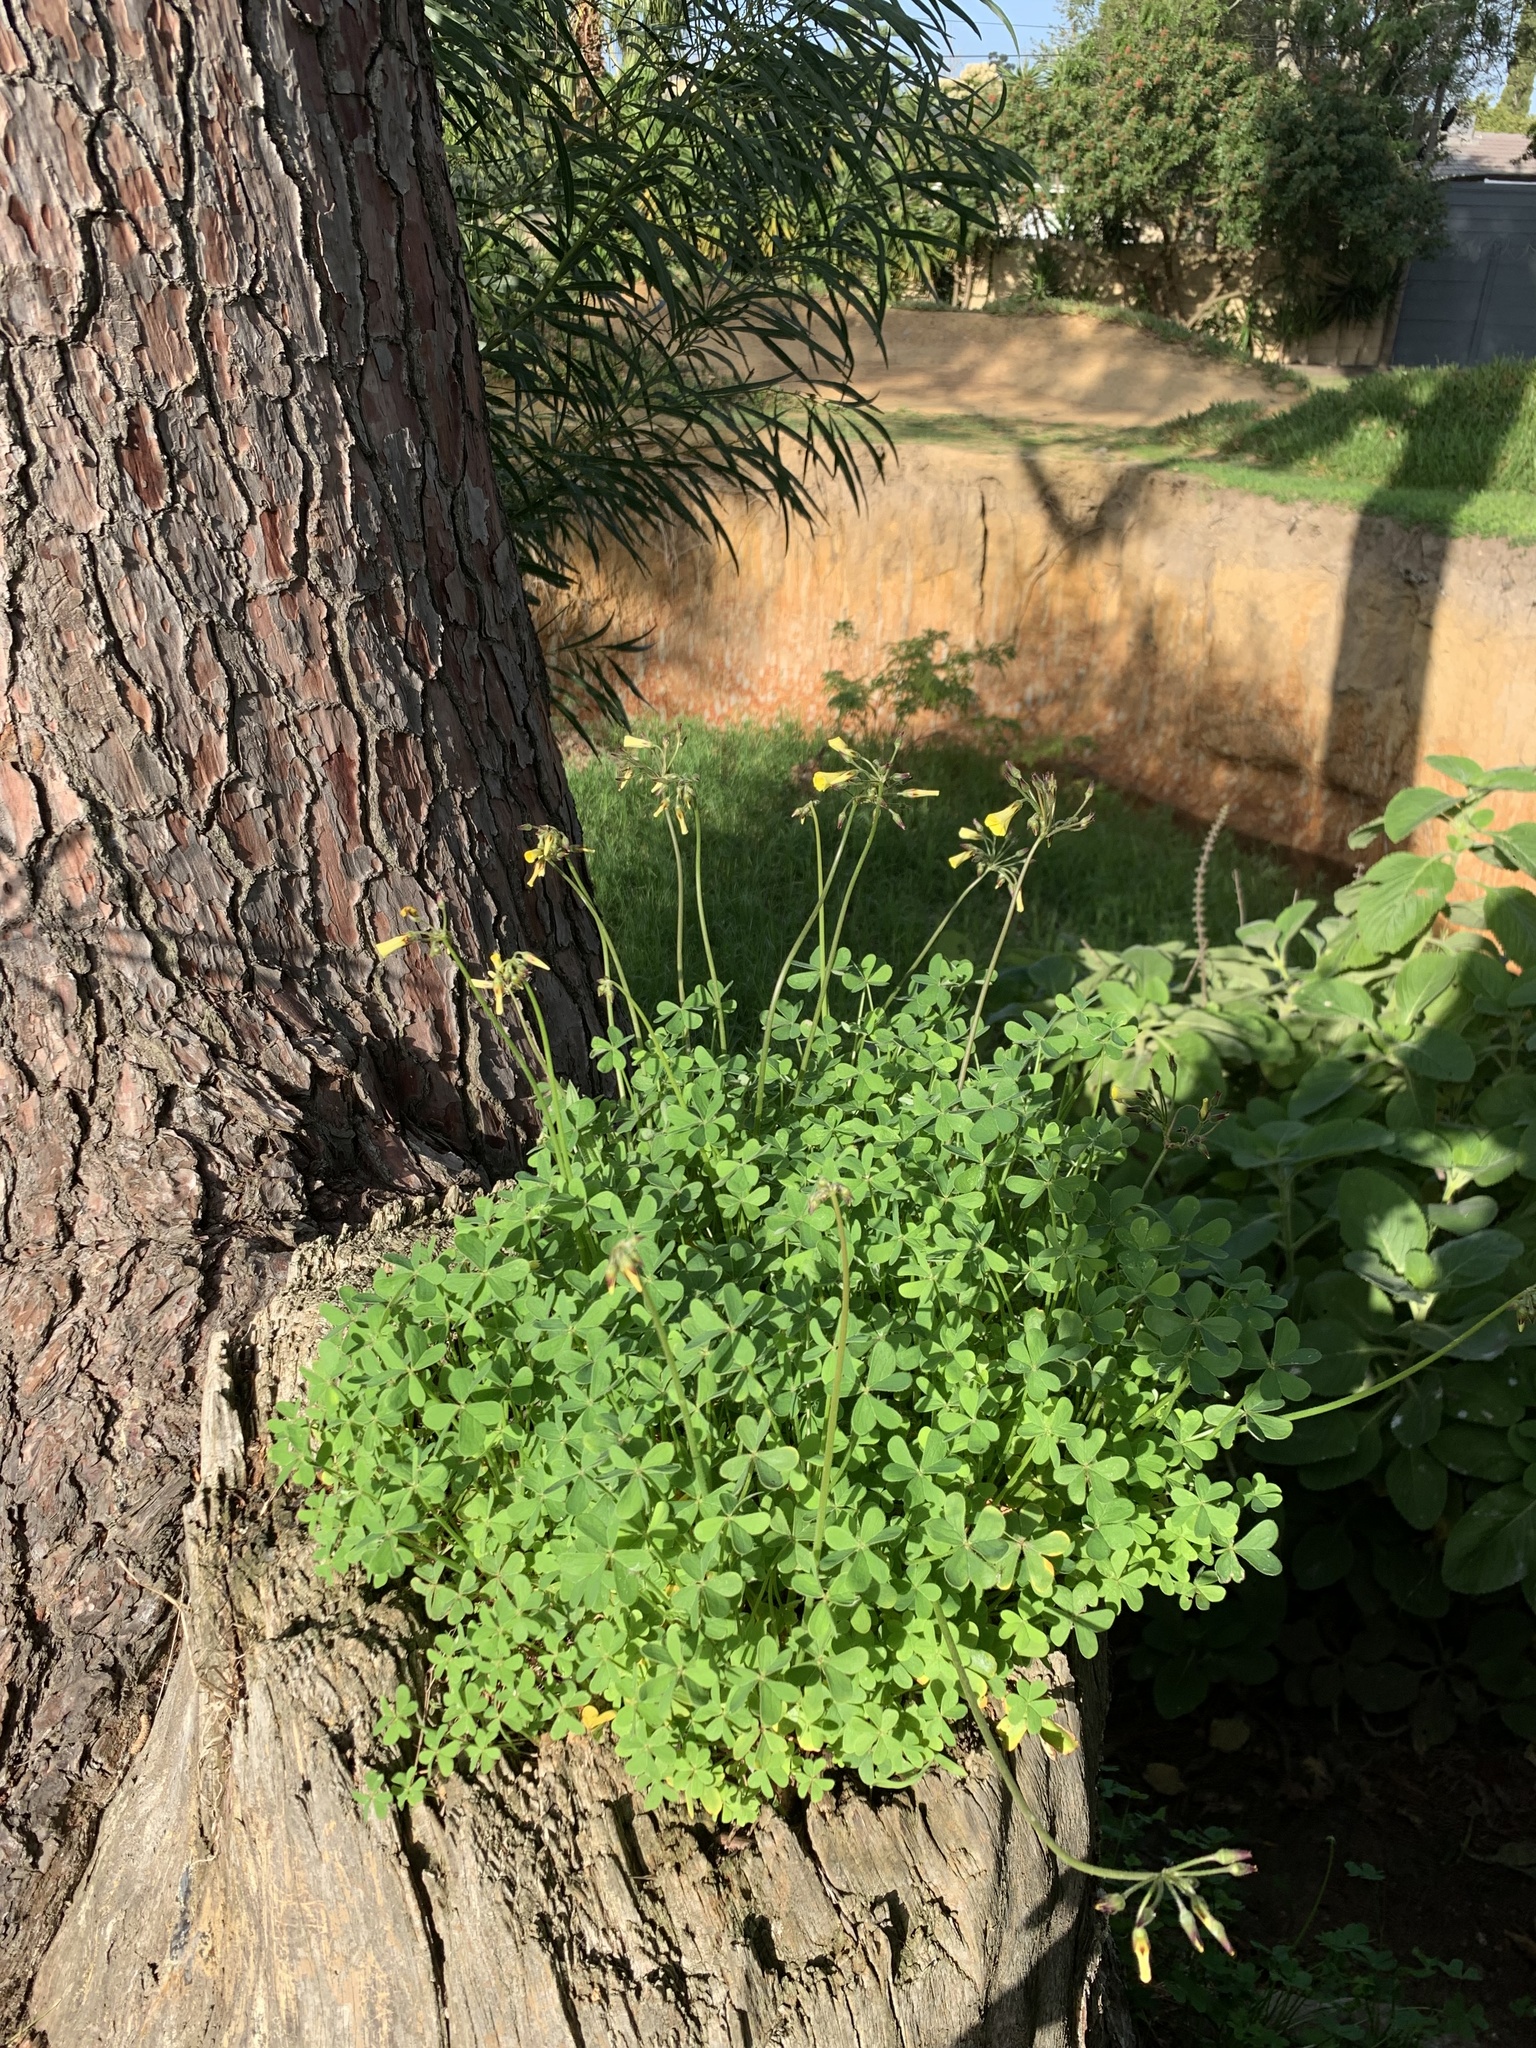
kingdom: Plantae
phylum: Tracheophyta
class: Magnoliopsida
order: Oxalidales
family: Oxalidaceae
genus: Oxalis
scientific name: Oxalis pes-caprae
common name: Bermuda-buttercup
